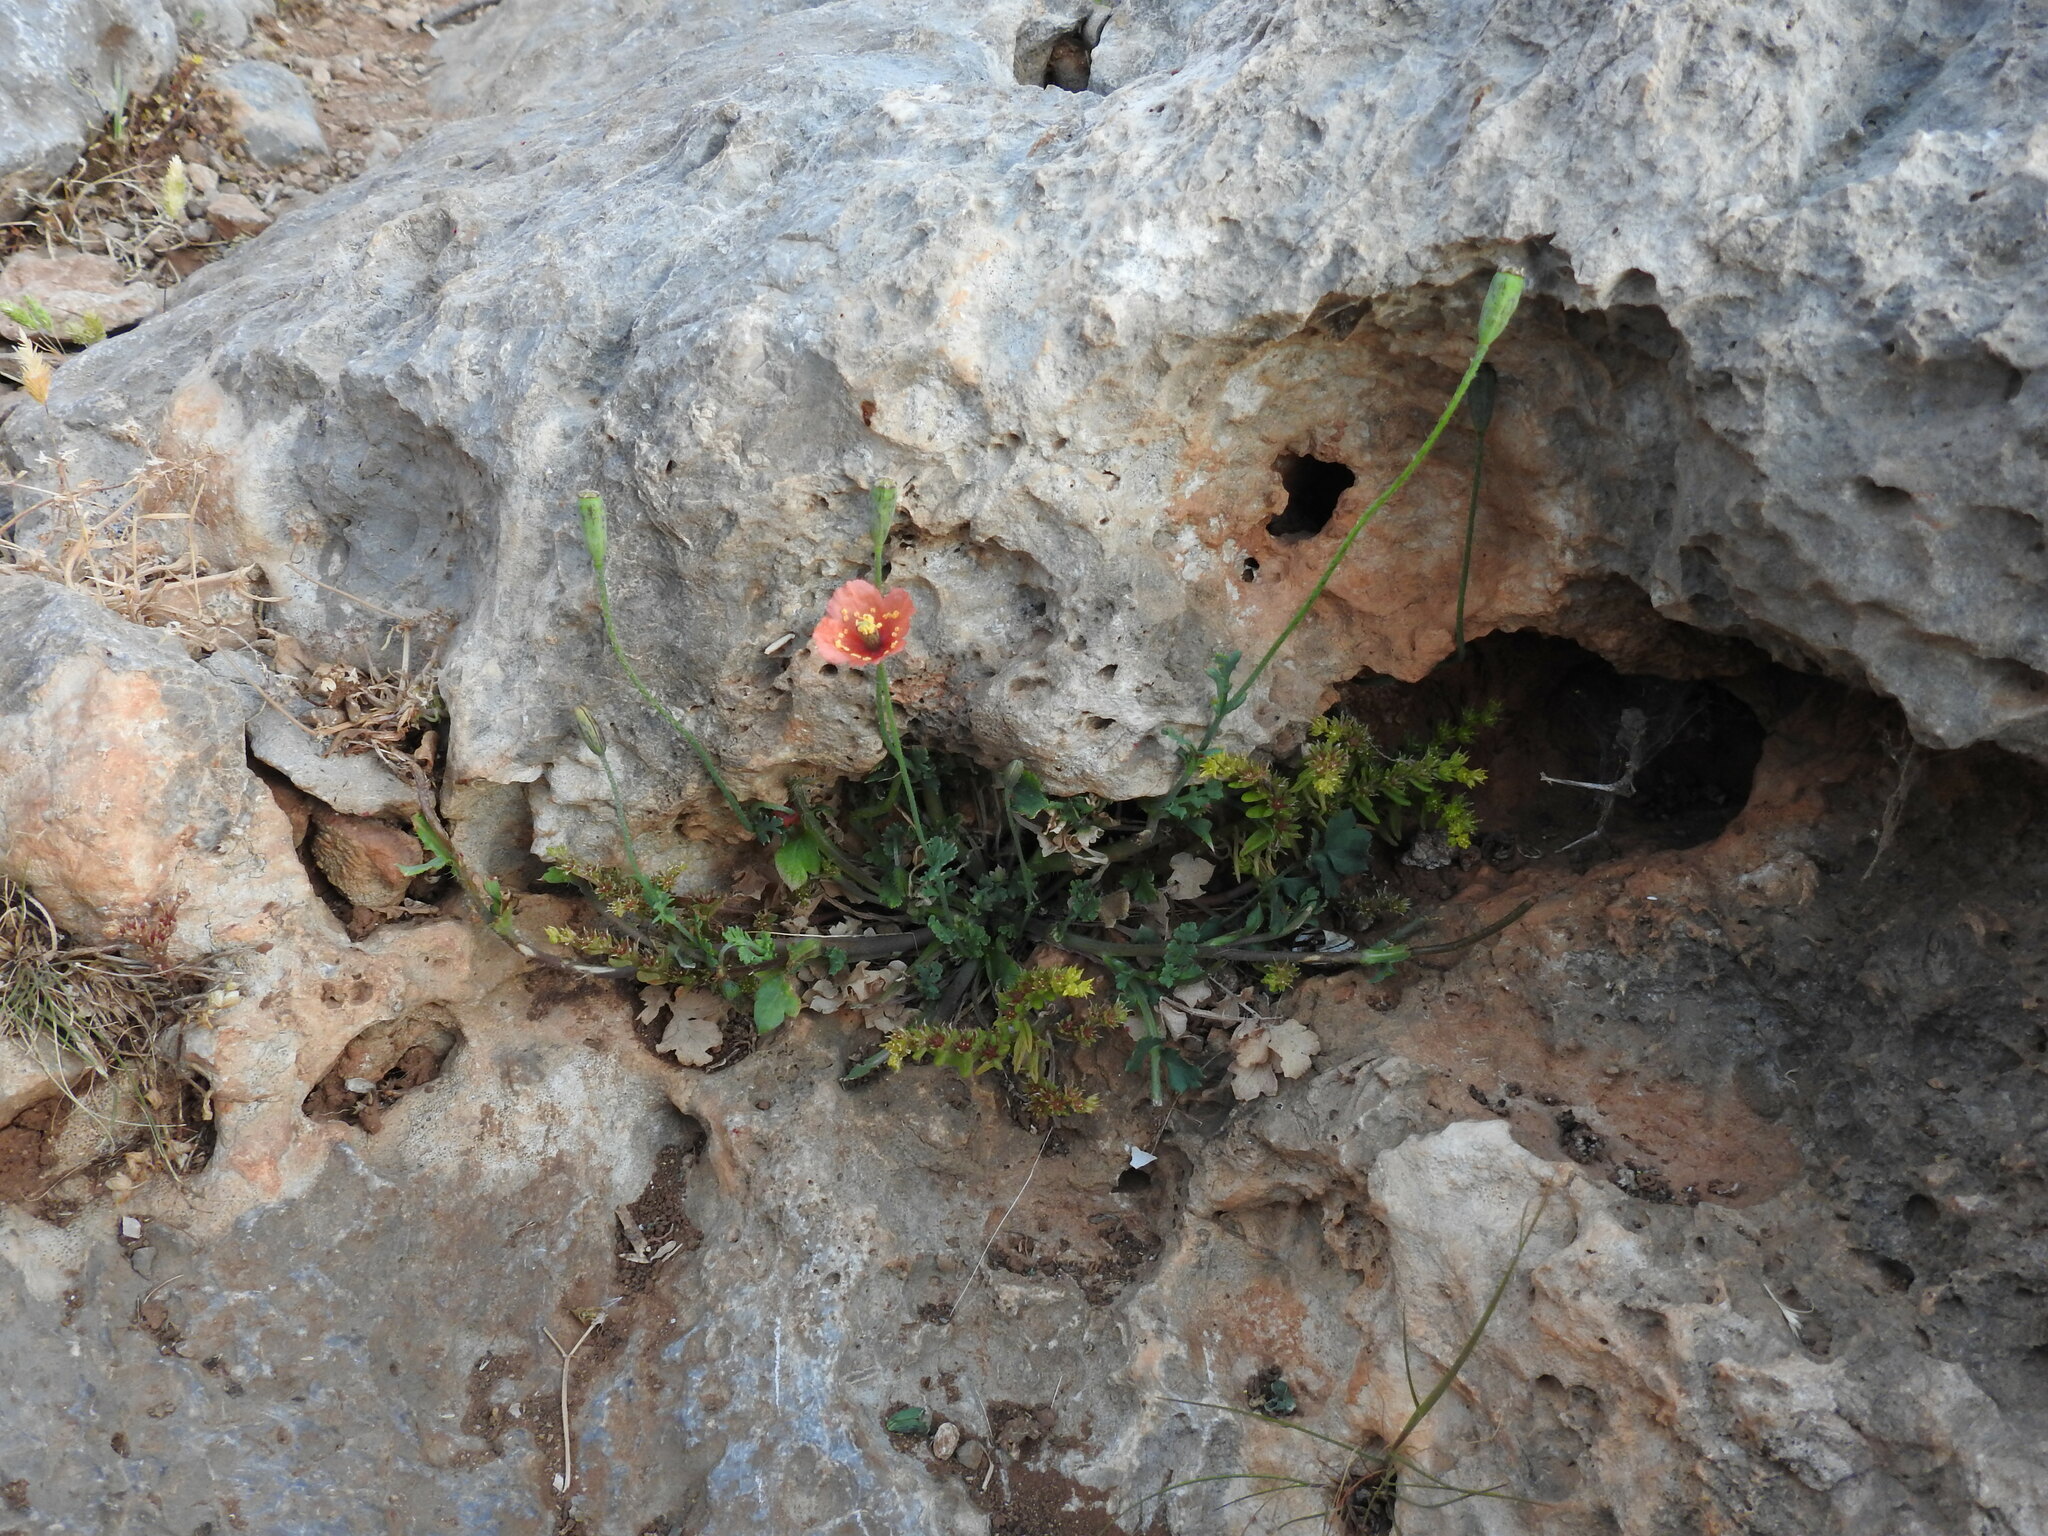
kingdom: Plantae
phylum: Tracheophyta
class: Magnoliopsida
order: Ranunculales
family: Papaveraceae
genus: Papaver
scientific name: Papaver purpureomarginatum
